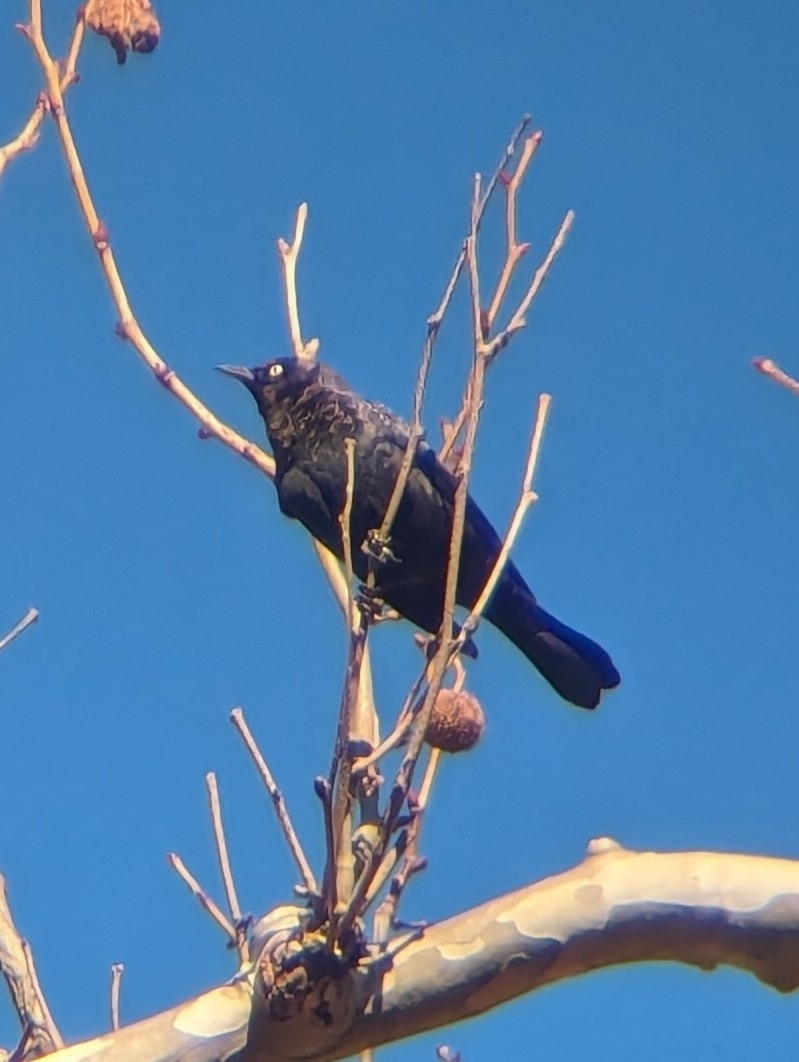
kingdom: Animalia
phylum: Chordata
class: Aves
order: Passeriformes
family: Icteridae
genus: Euphagus
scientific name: Euphagus carolinus
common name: Rusty blackbird
